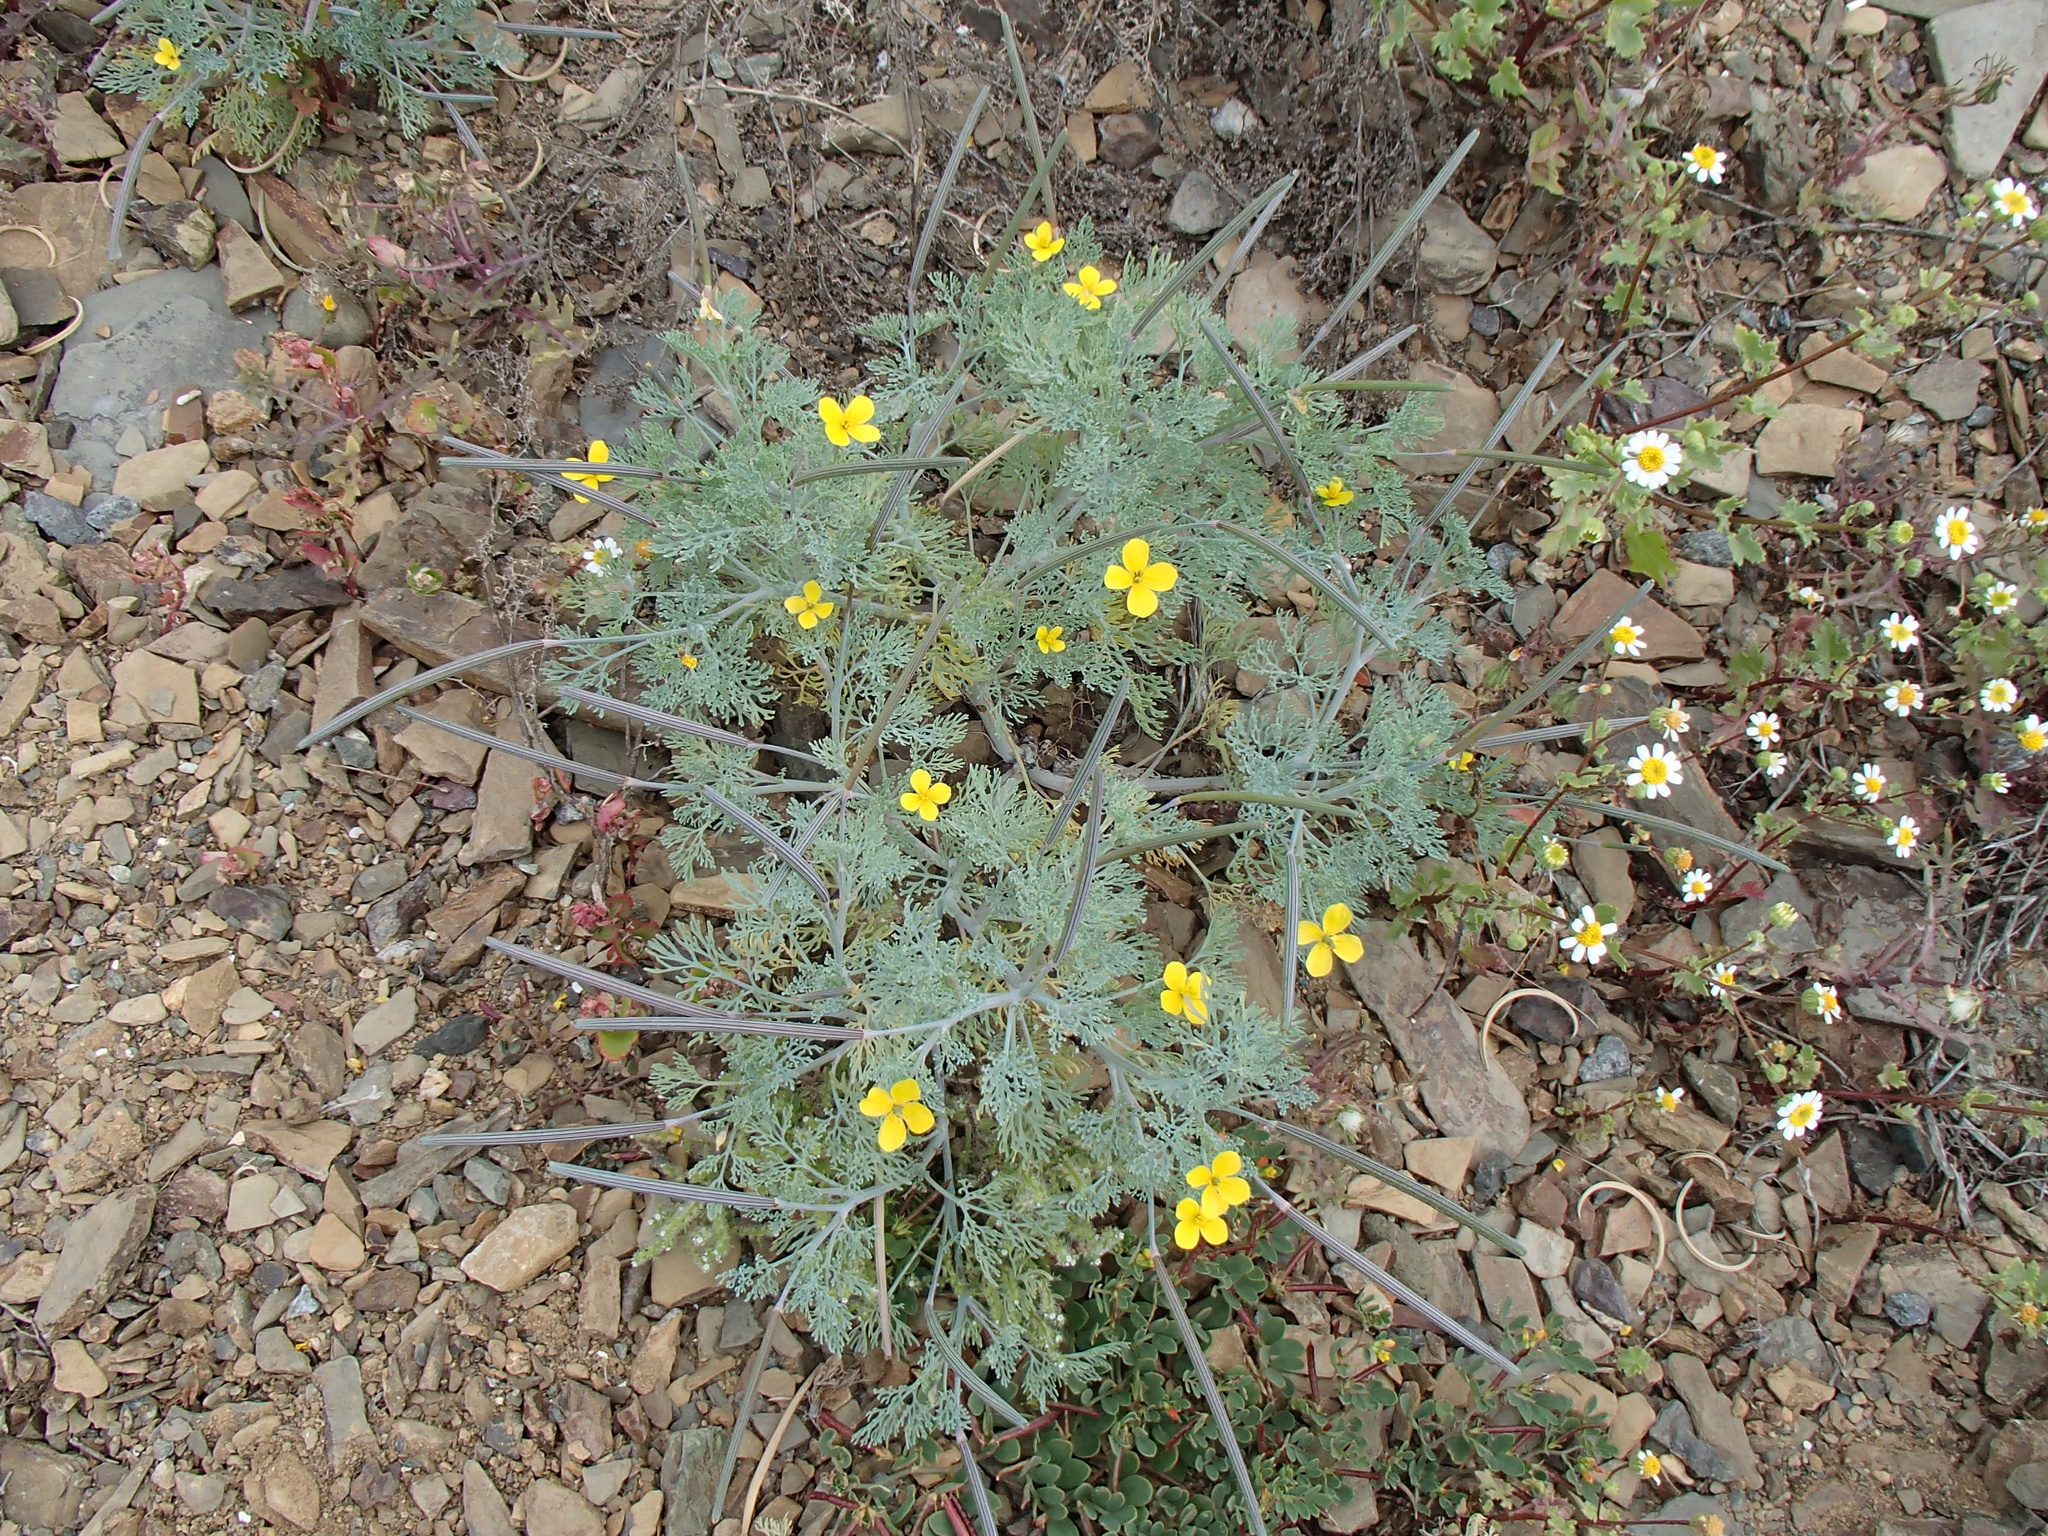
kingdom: Plantae
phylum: Tracheophyta
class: Magnoliopsida
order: Ranunculales
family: Papaveraceae
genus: Eschscholzia
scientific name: Eschscholzia ramosa
